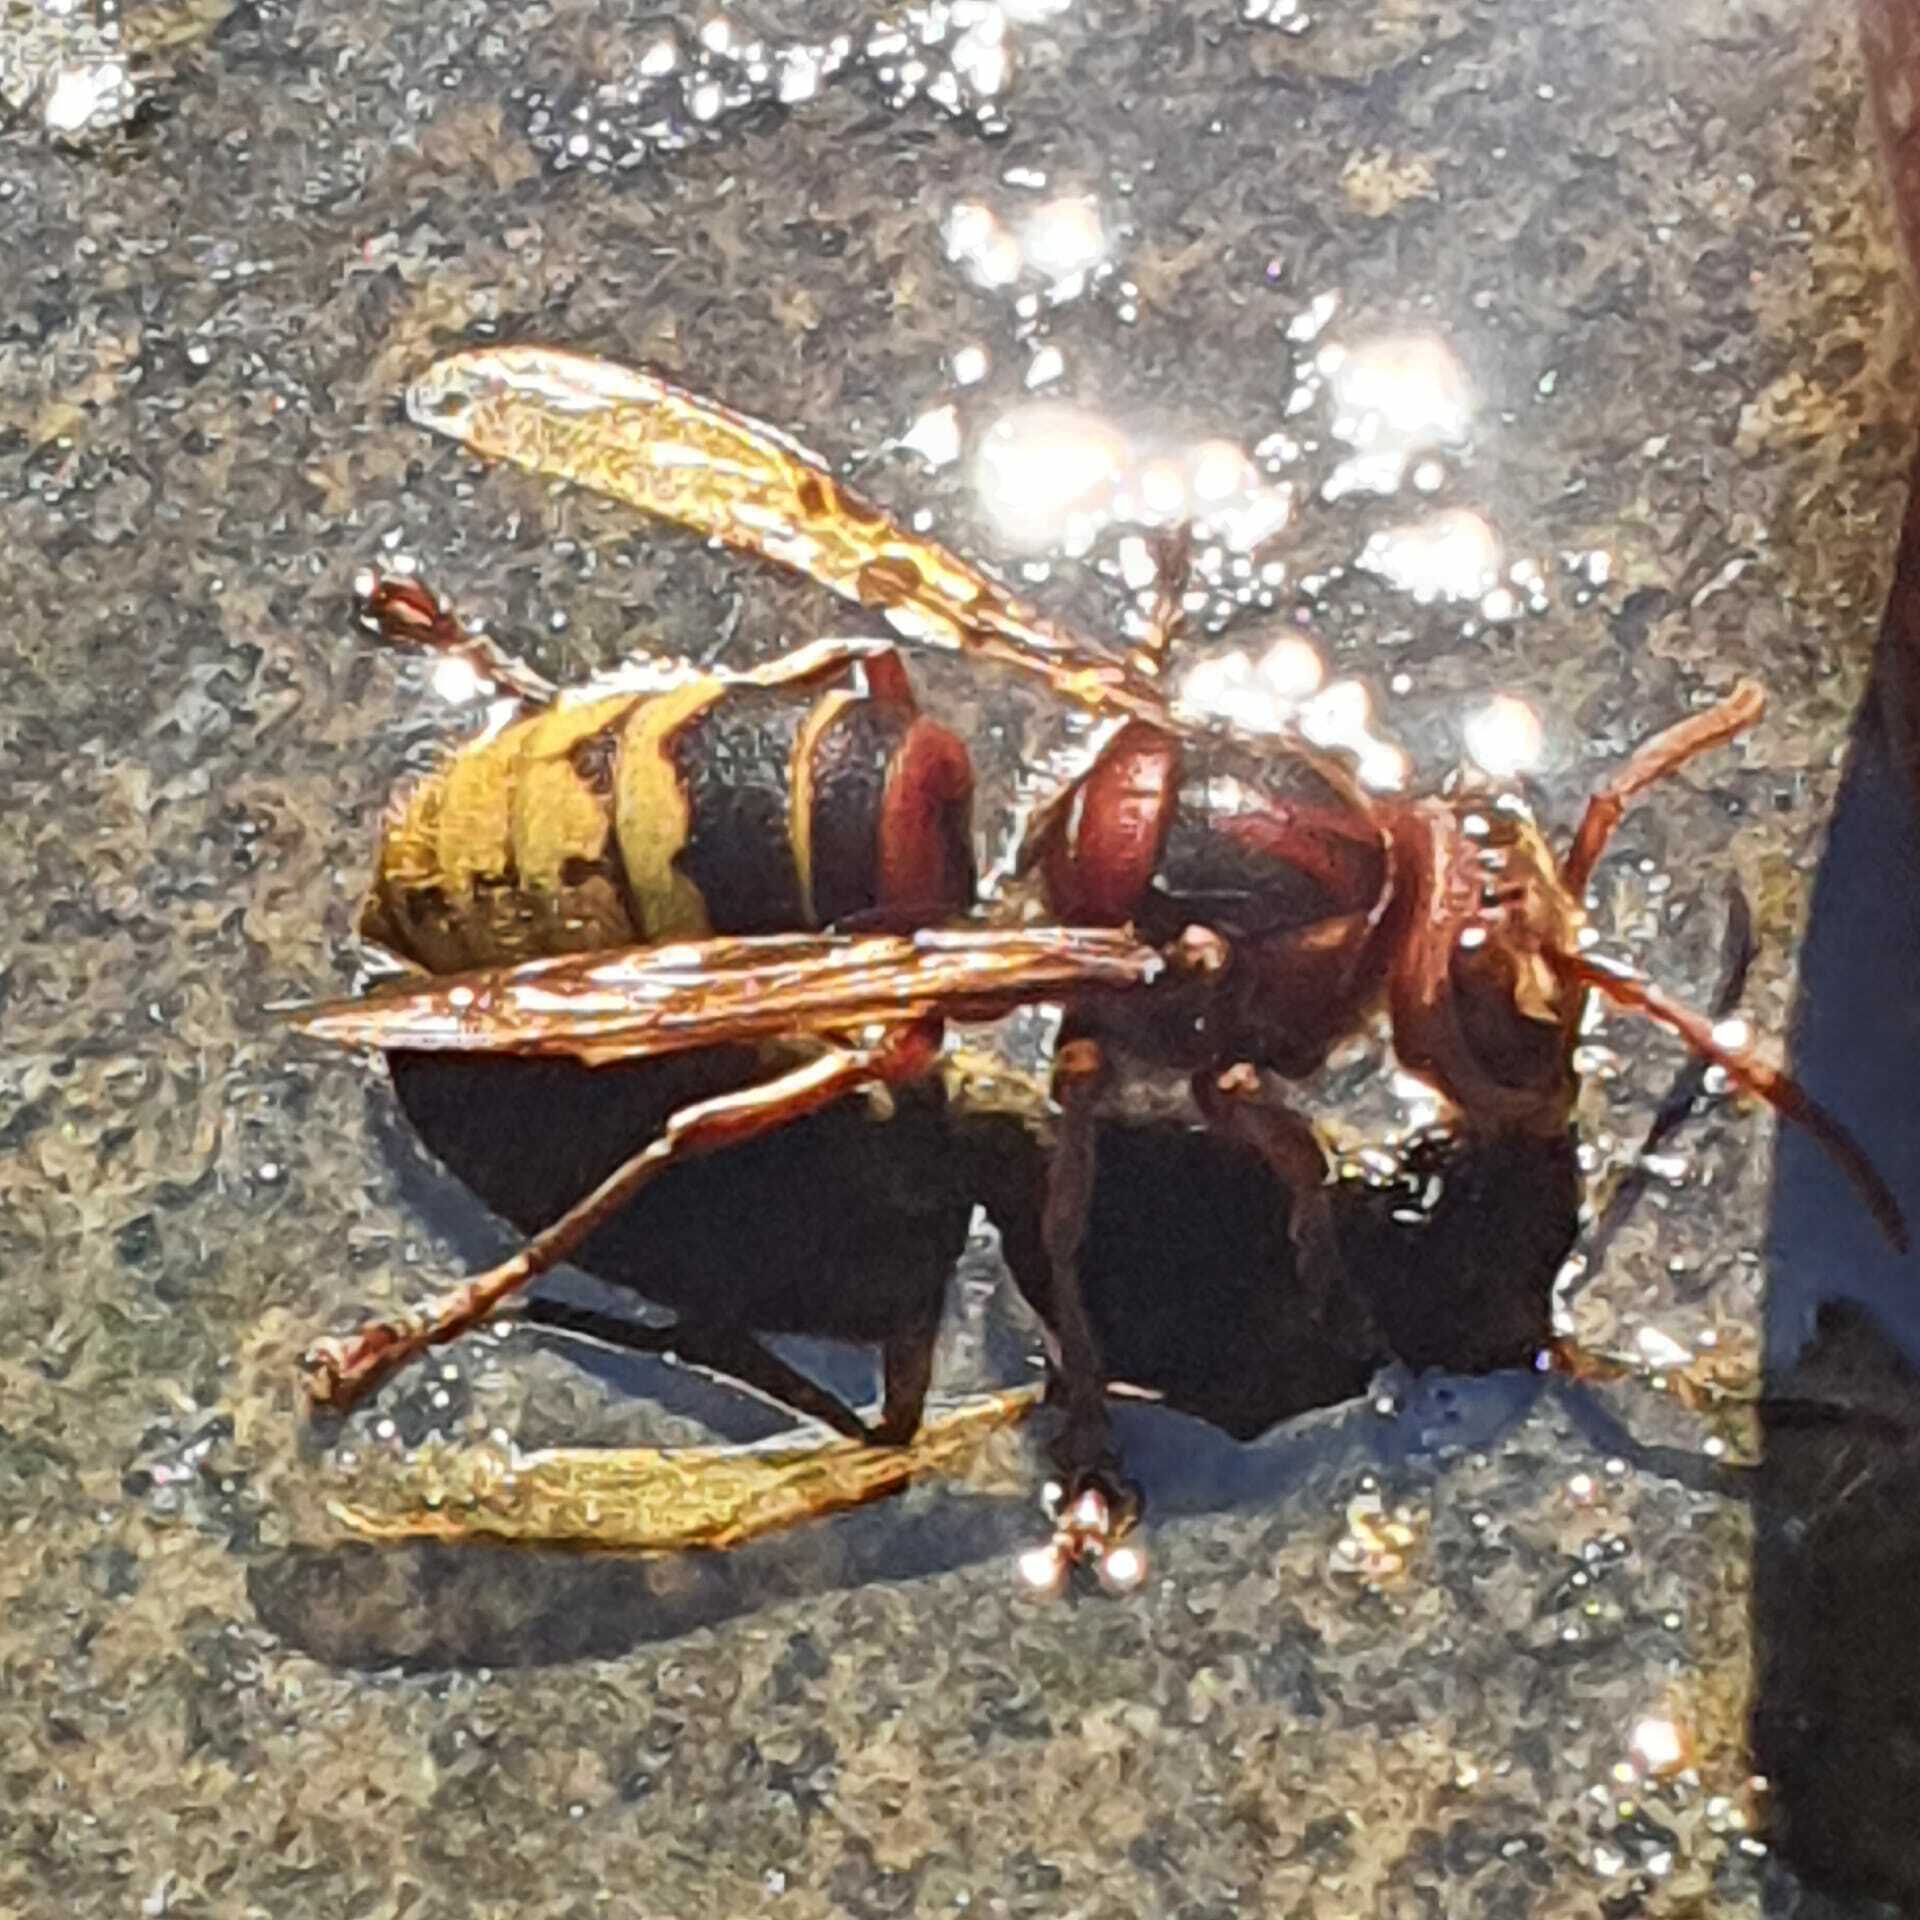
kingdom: Animalia
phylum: Arthropoda
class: Insecta
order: Hymenoptera
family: Vespidae
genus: Vespa
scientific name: Vespa crabro
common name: Hornet
